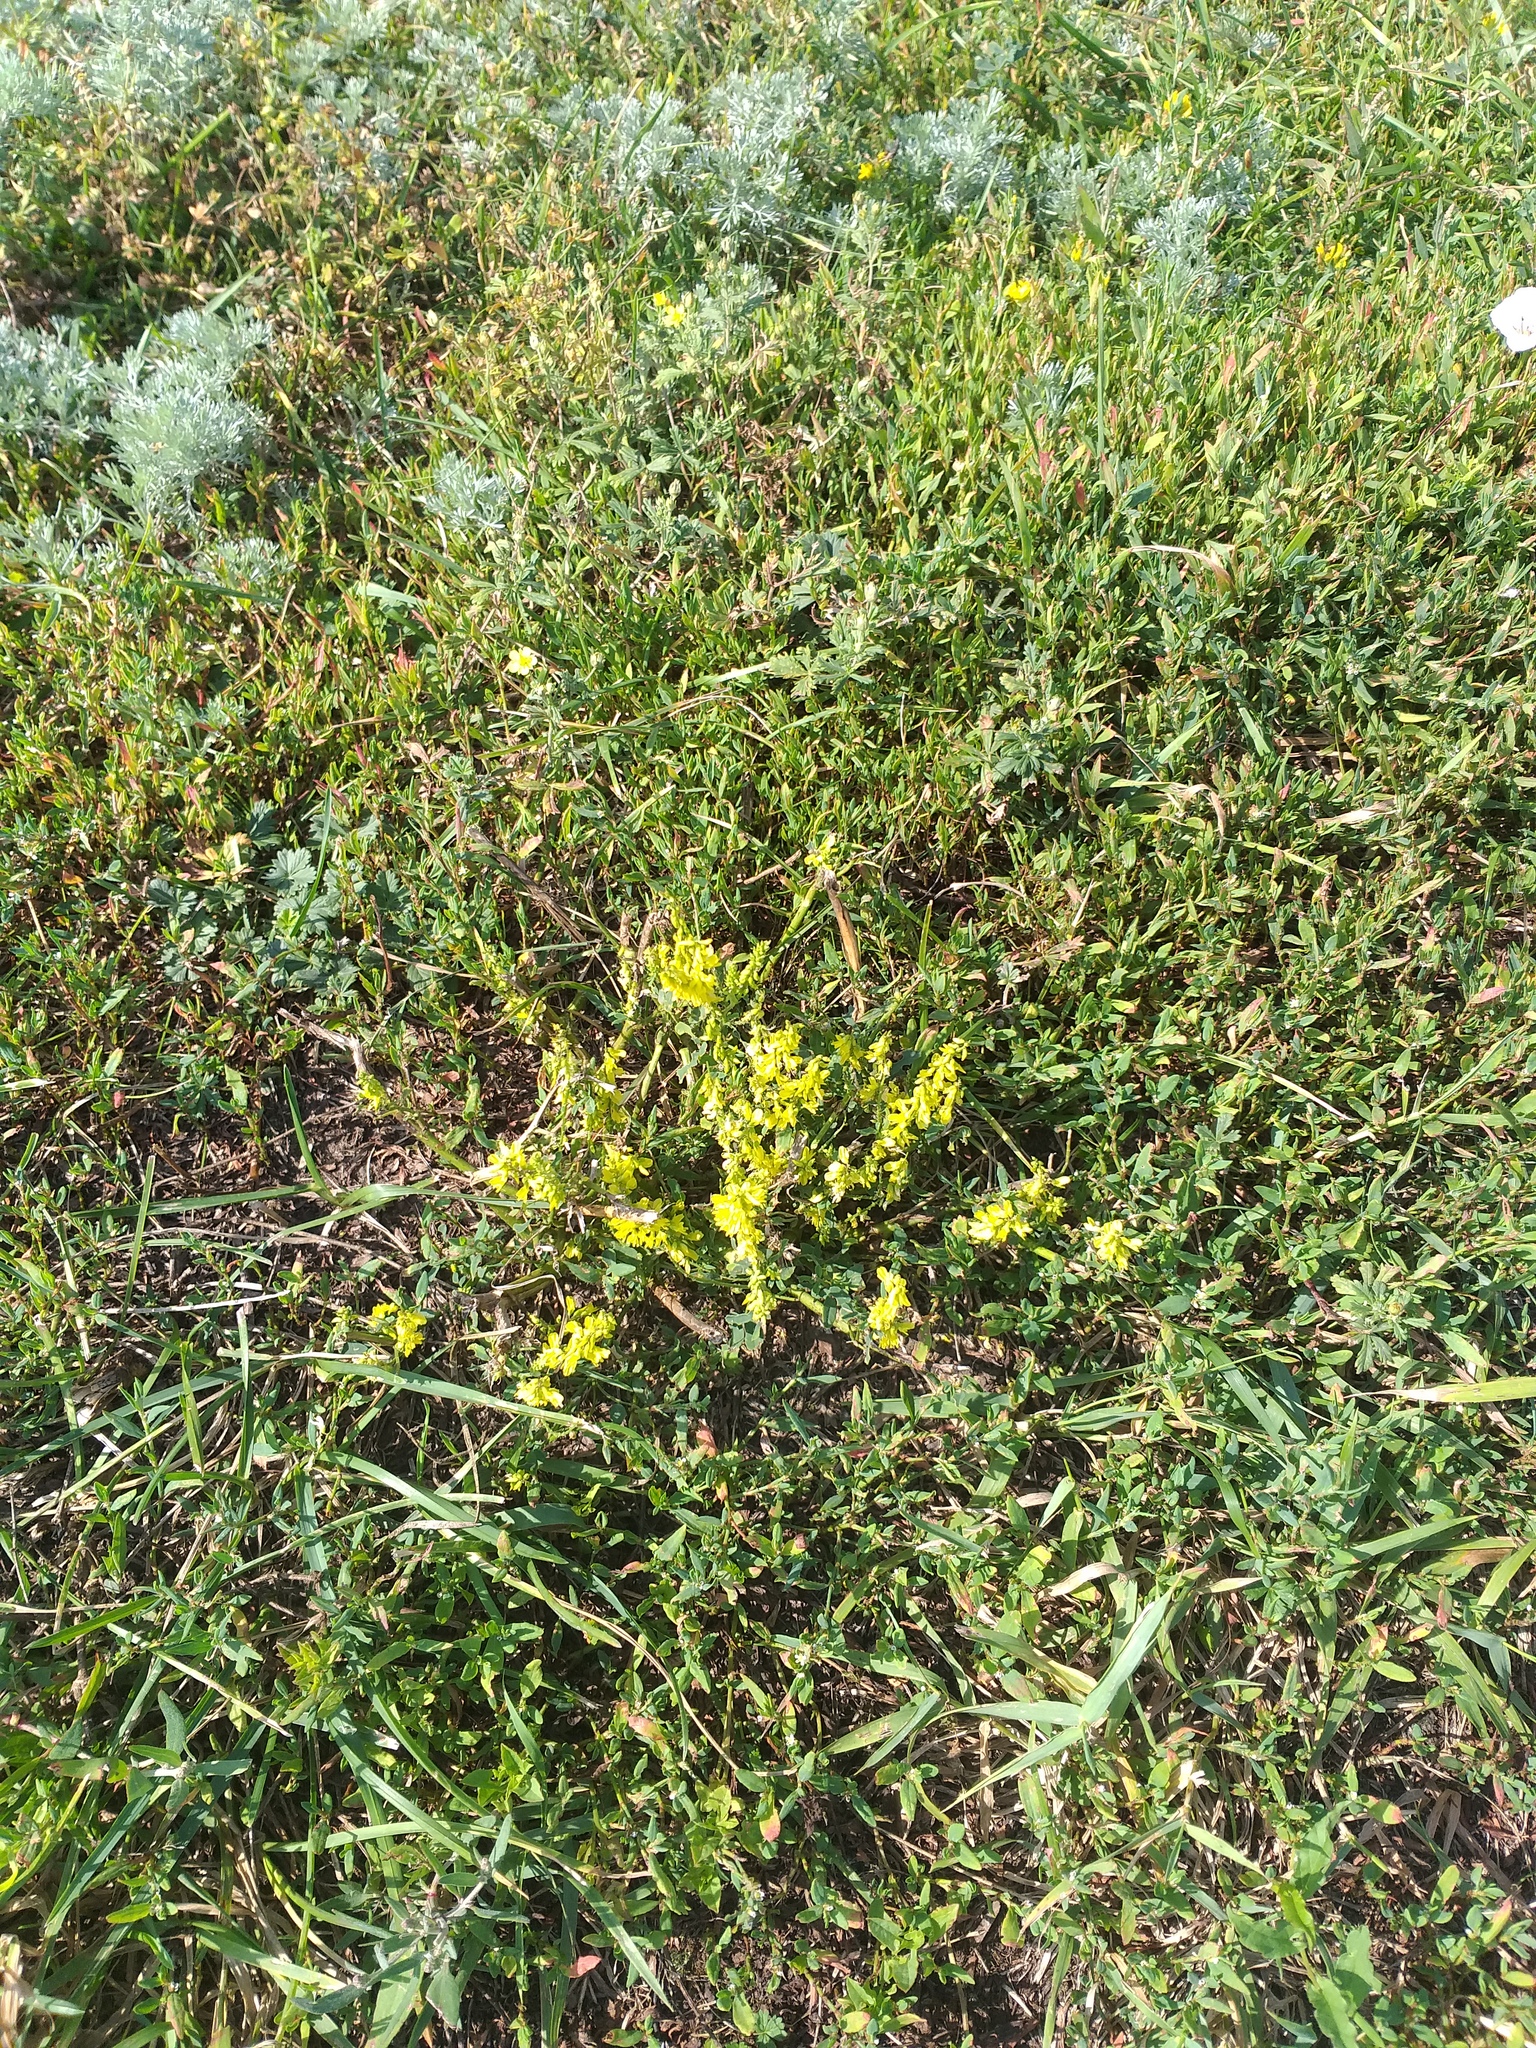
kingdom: Plantae
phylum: Tracheophyta
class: Magnoliopsida
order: Fabales
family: Fabaceae
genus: Melilotus
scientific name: Melilotus officinalis
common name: Sweetclover
